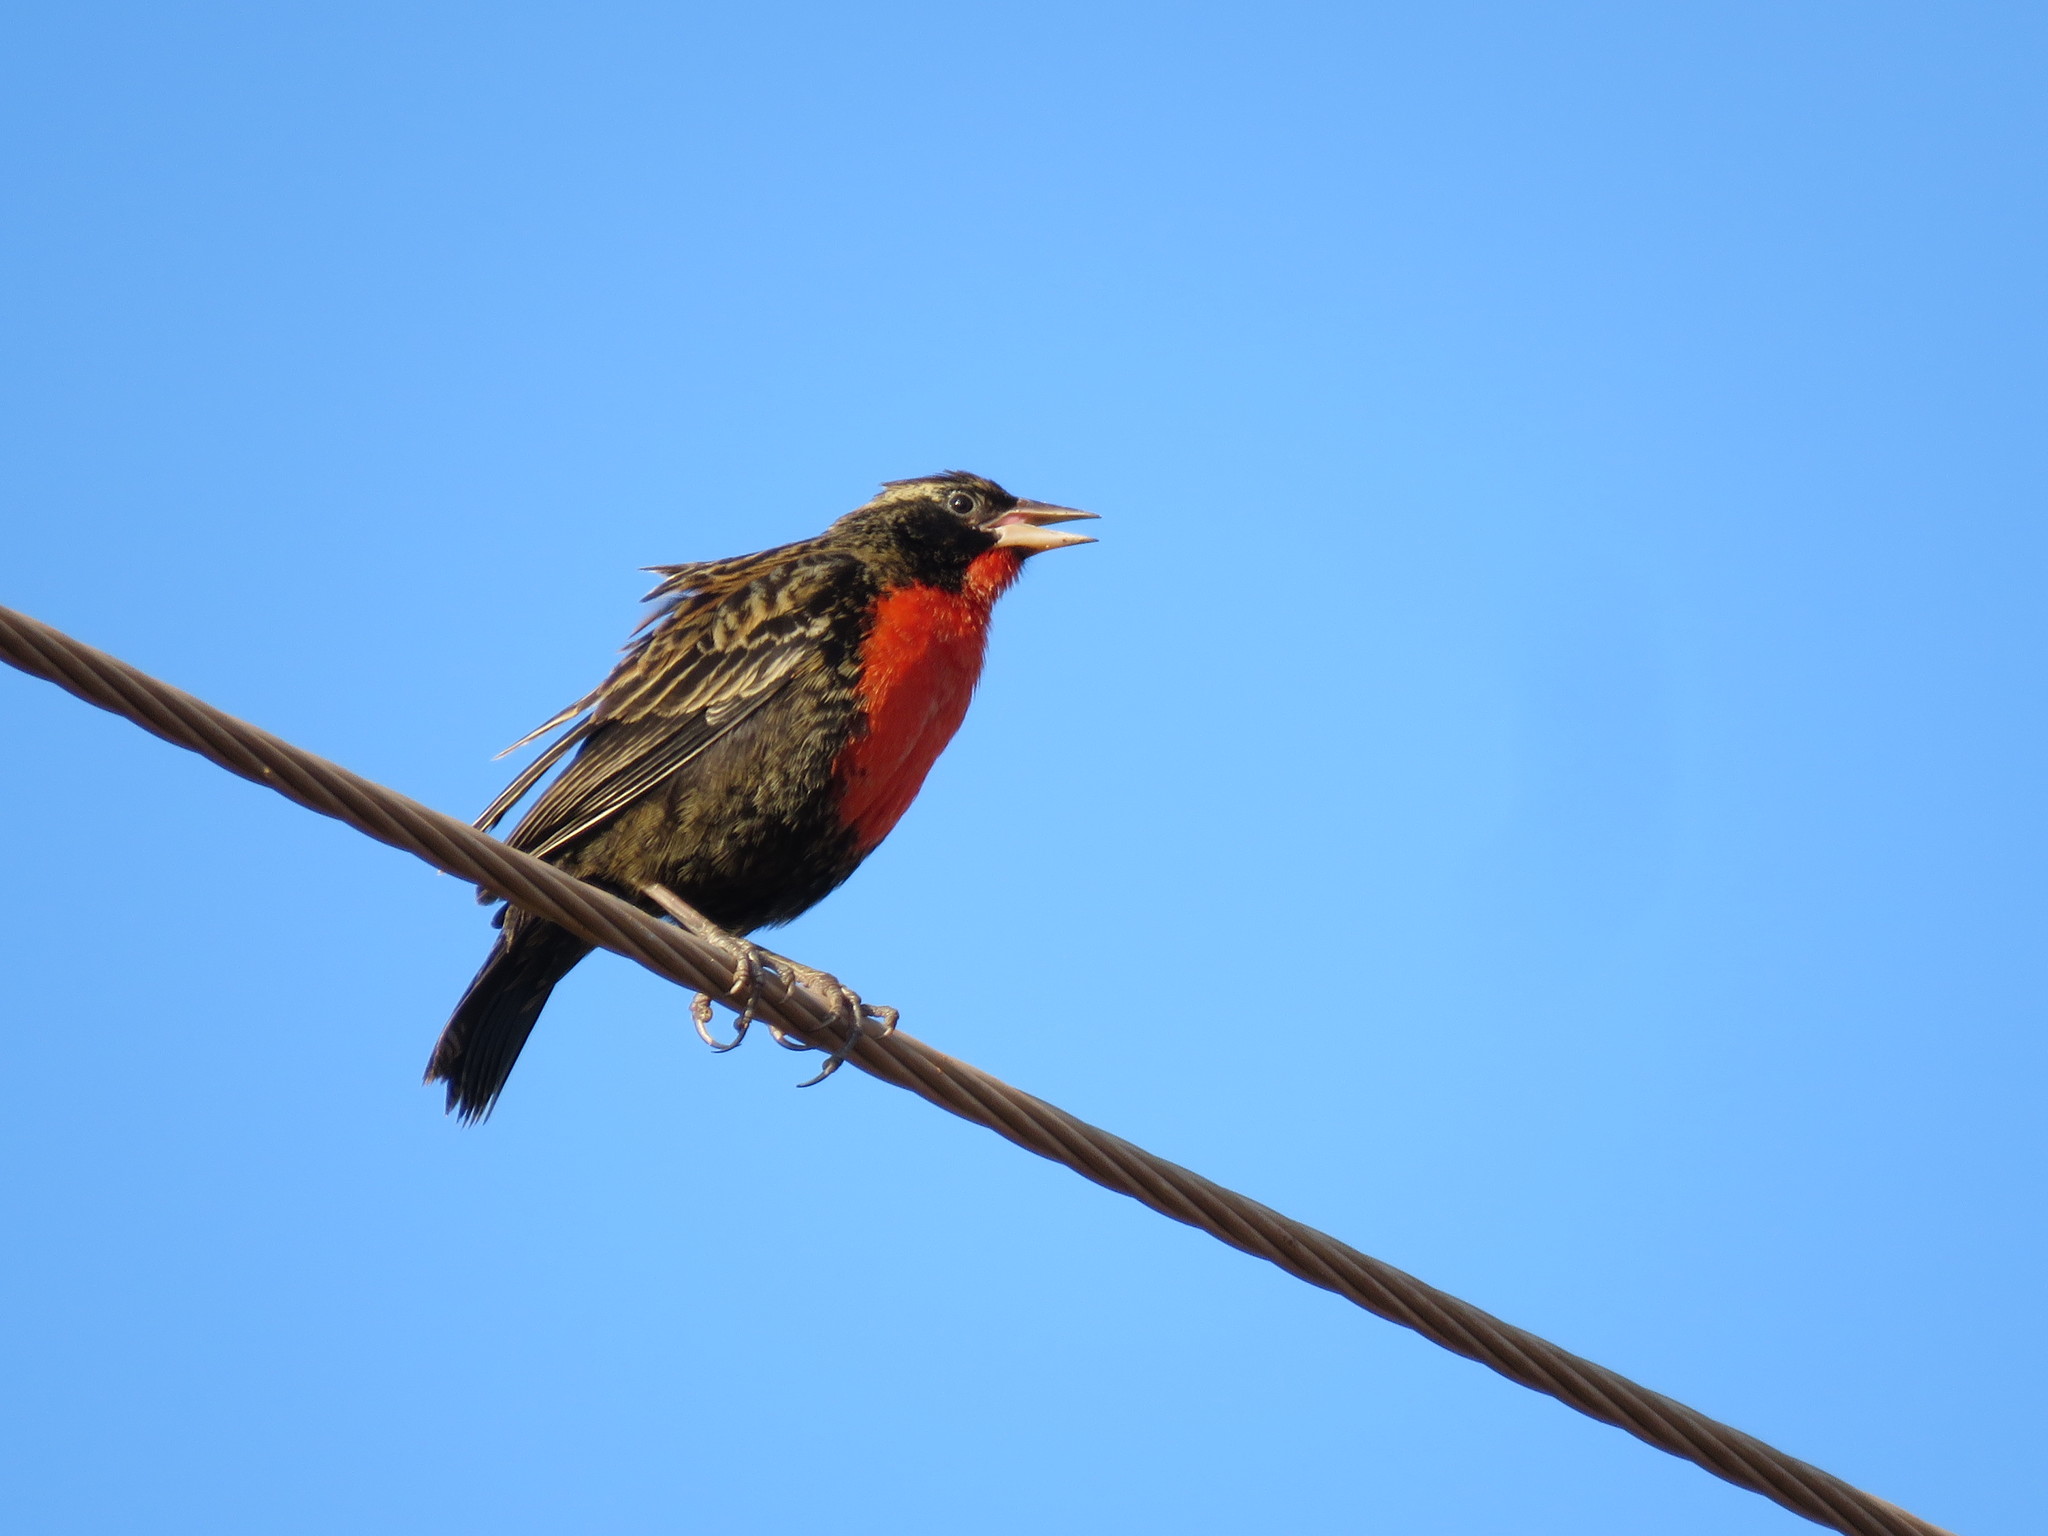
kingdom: Animalia
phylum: Chordata
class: Aves
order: Passeriformes
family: Icteridae
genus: Sturnella
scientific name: Sturnella superciliaris
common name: White-browed blackbird
